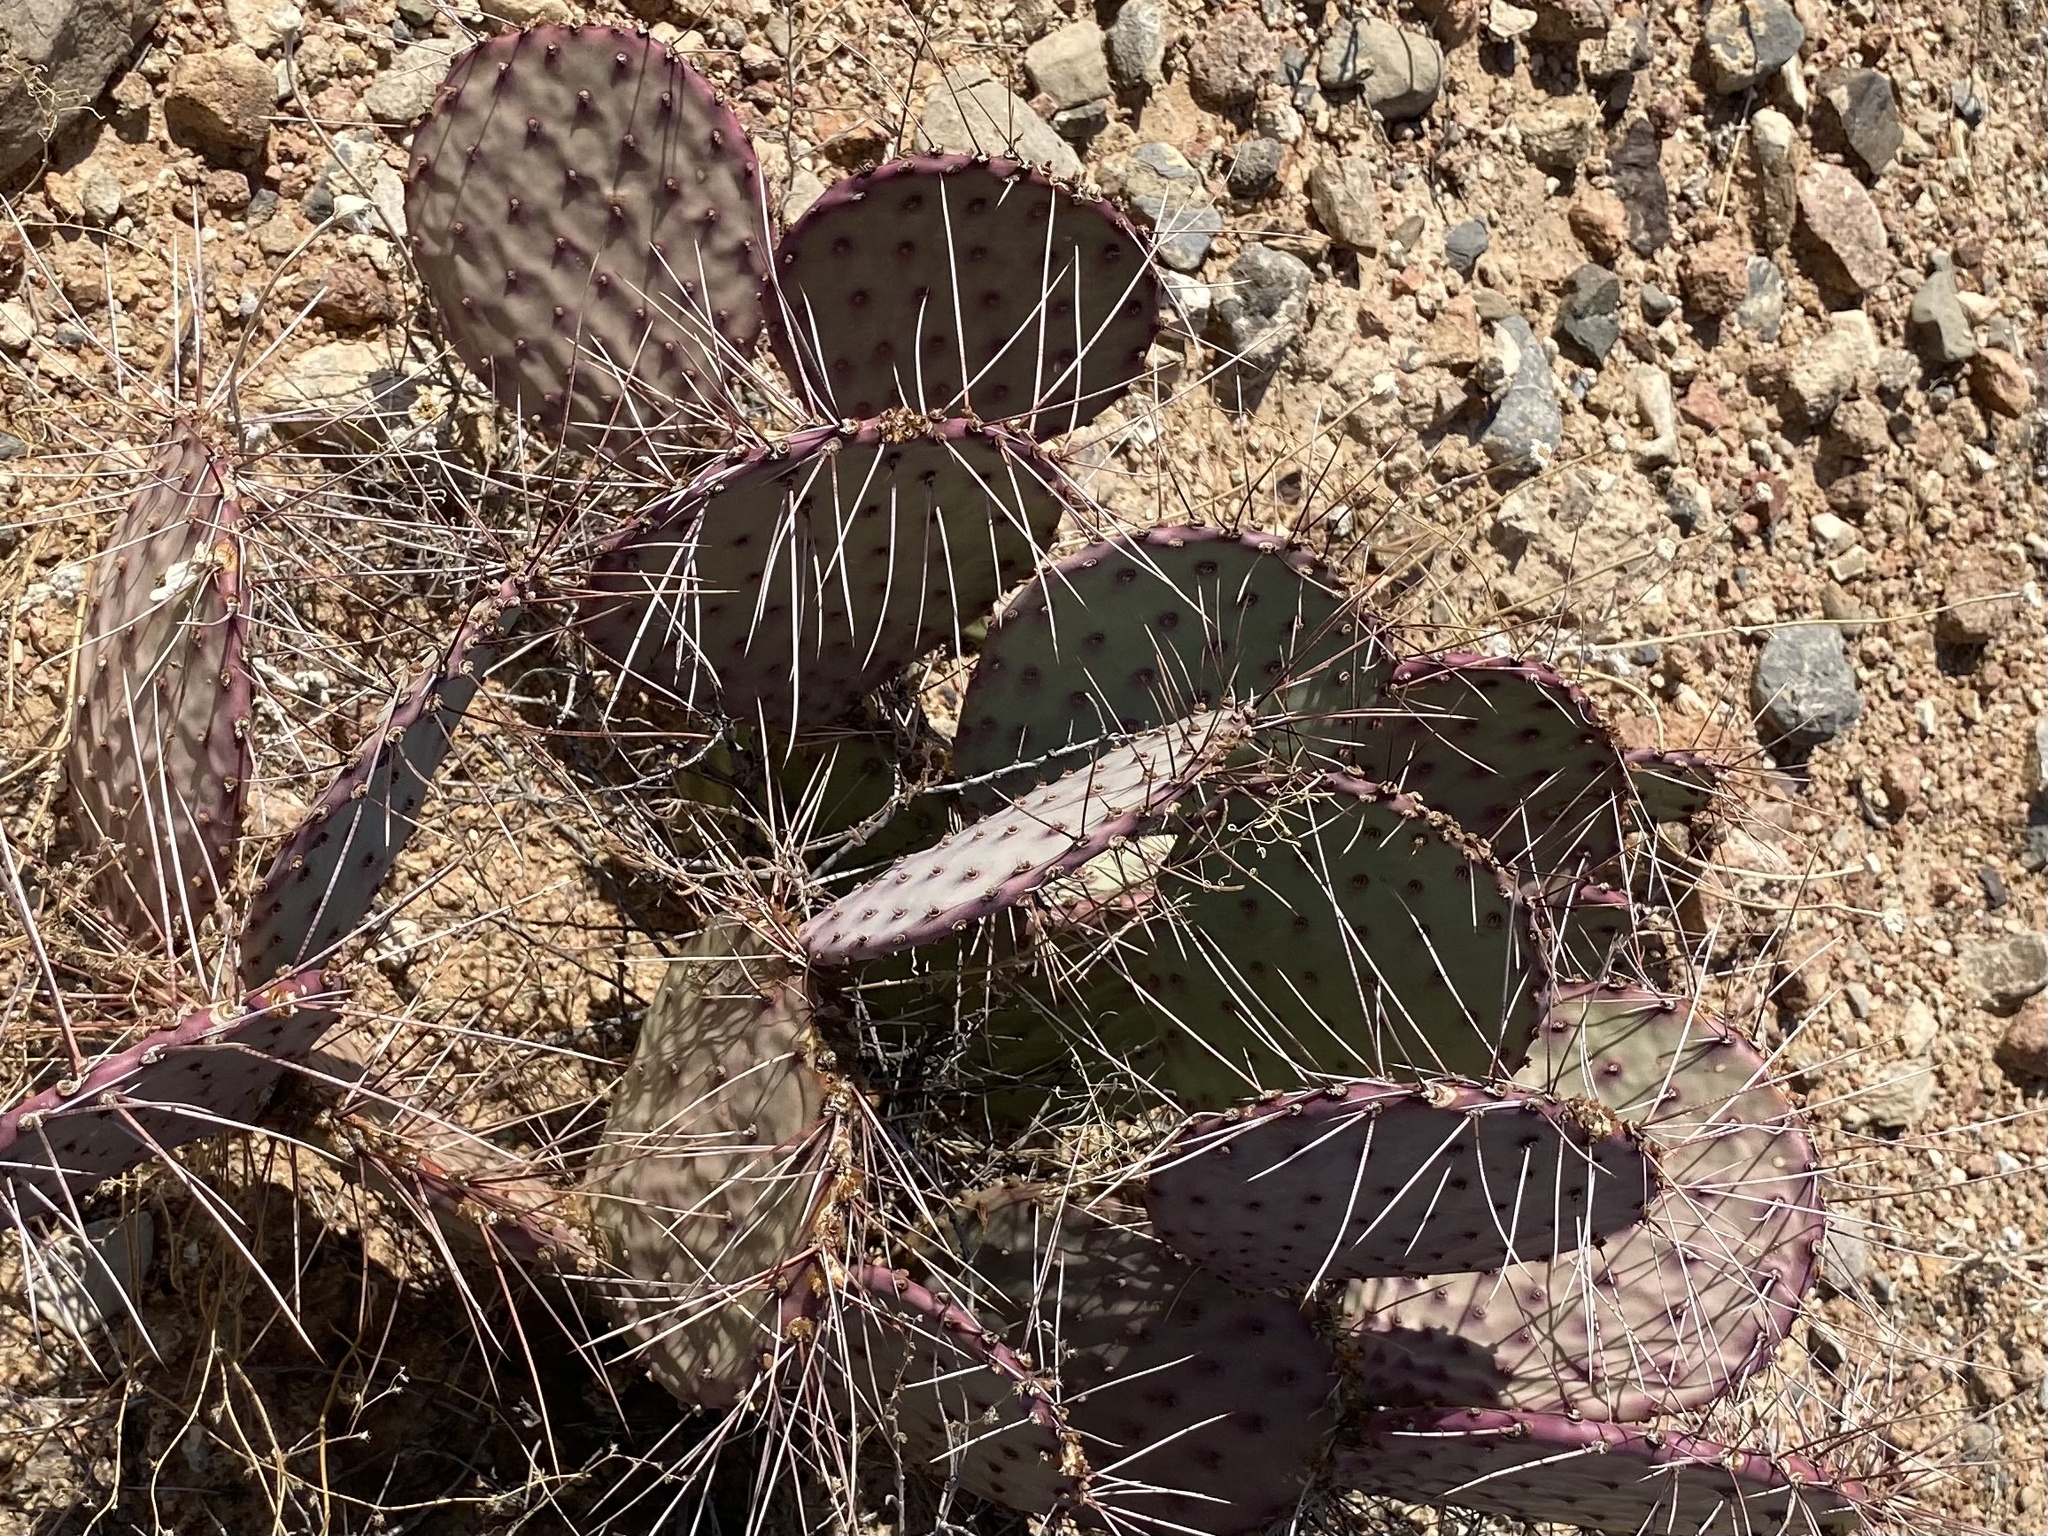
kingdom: Plantae
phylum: Tracheophyta
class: Magnoliopsida
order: Caryophyllales
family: Cactaceae
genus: Opuntia
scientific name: Opuntia macrocentra
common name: Purple prickly-pear
